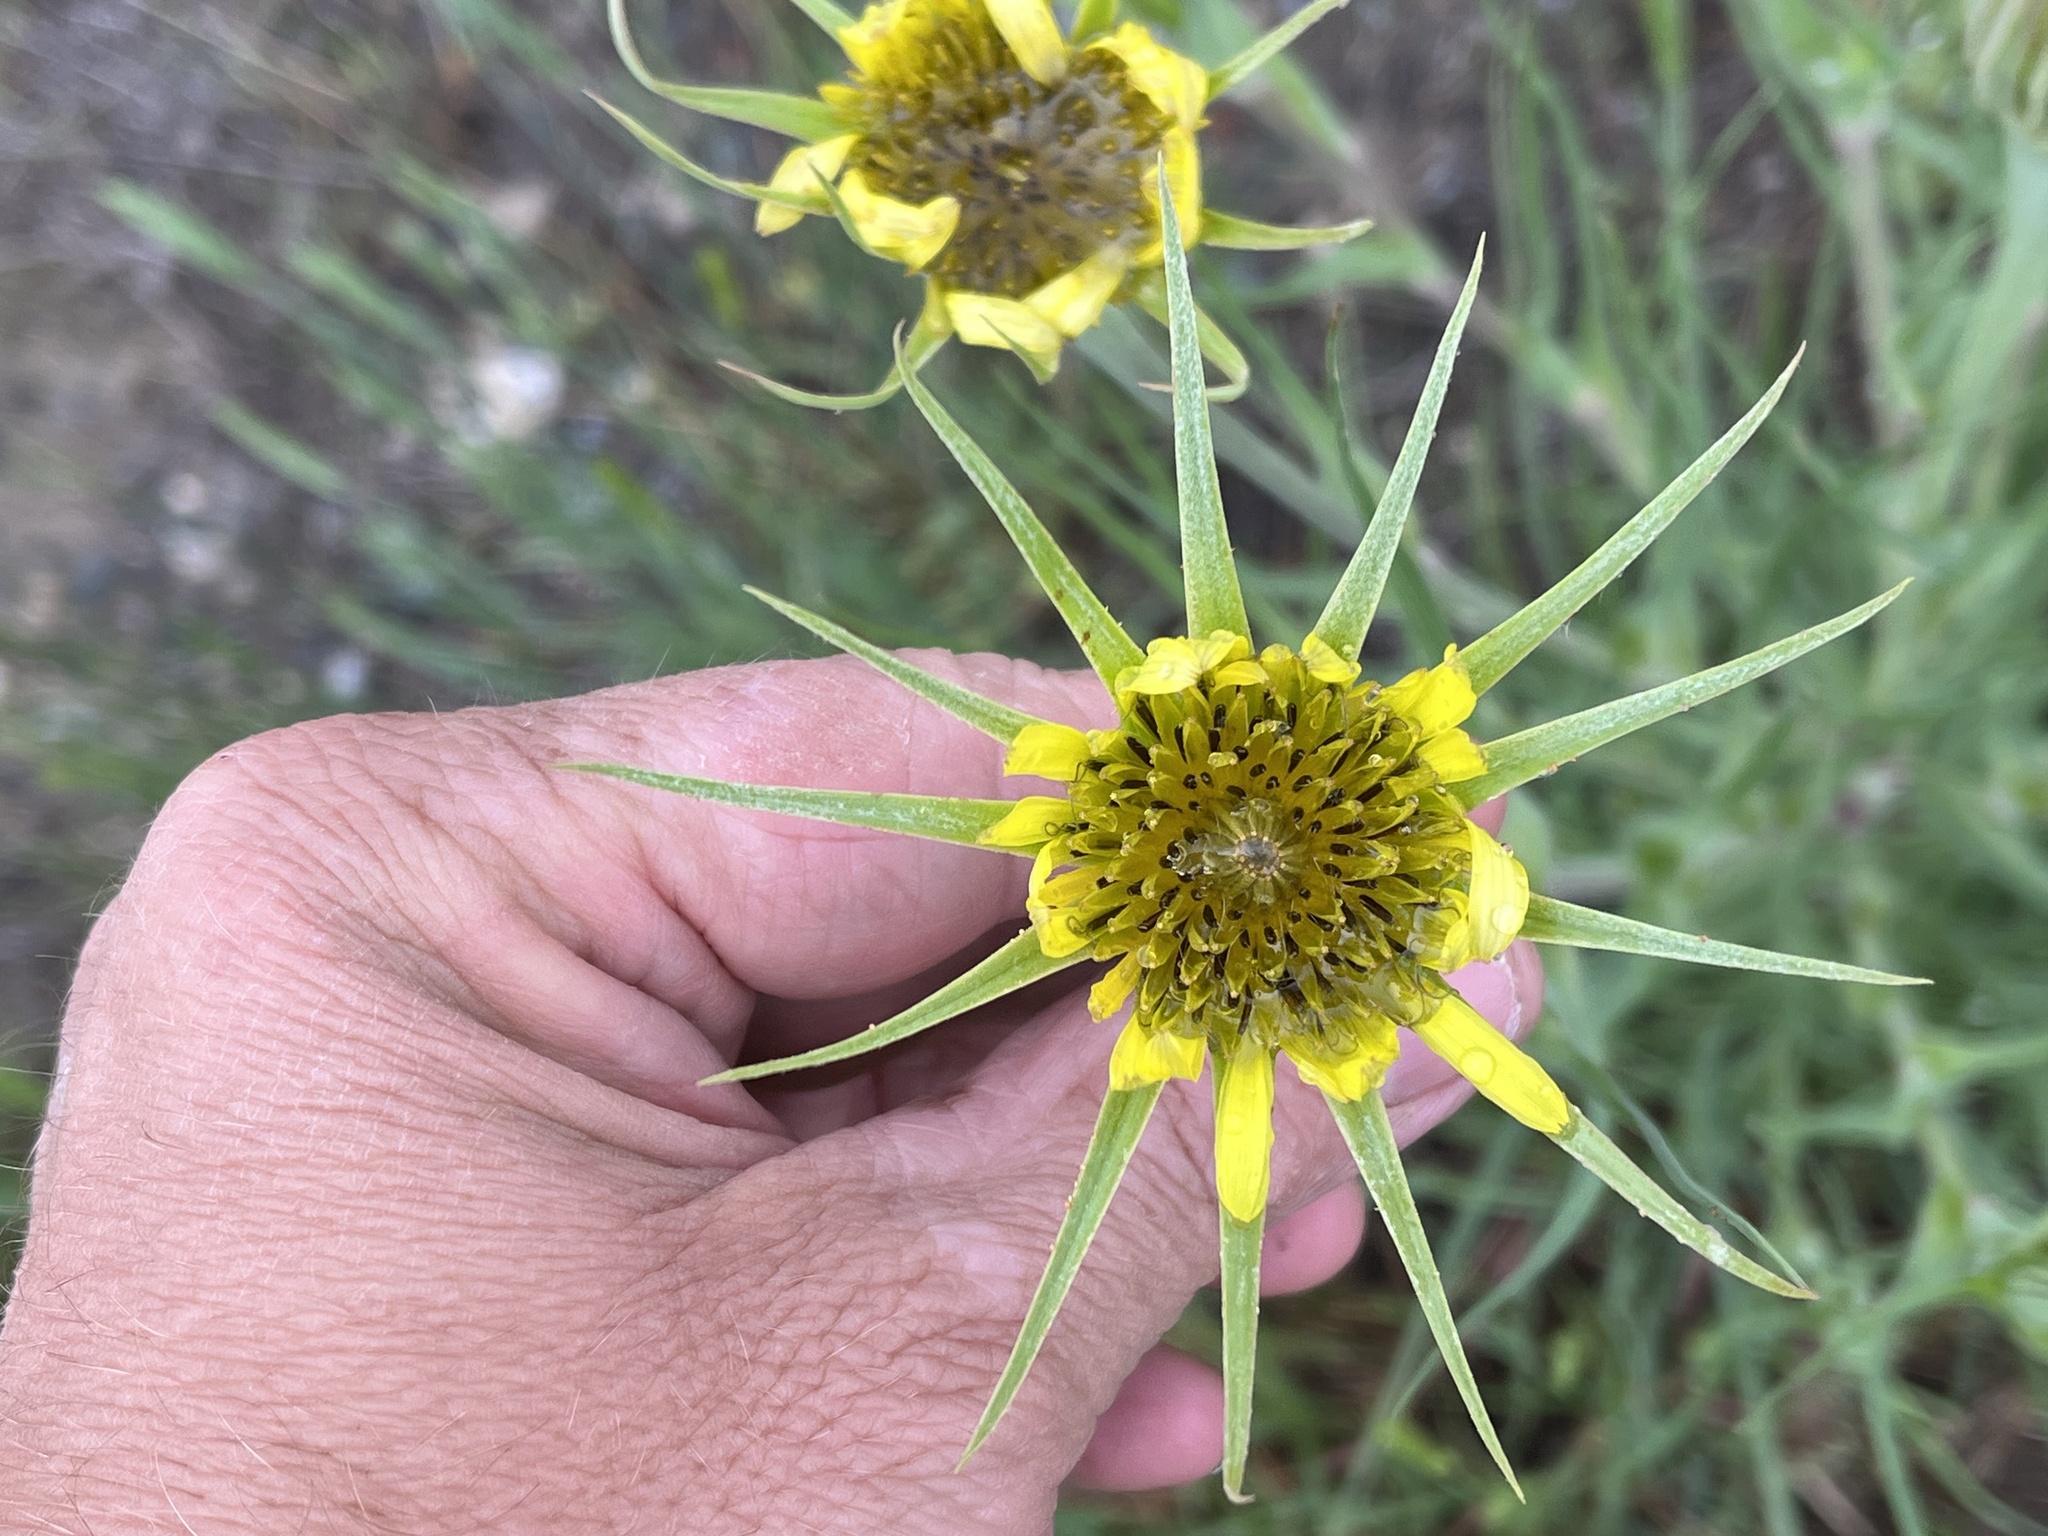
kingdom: Plantae
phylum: Tracheophyta
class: Magnoliopsida
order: Asterales
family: Asteraceae
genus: Tragopogon
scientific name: Tragopogon dubius
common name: Yellow salsify
